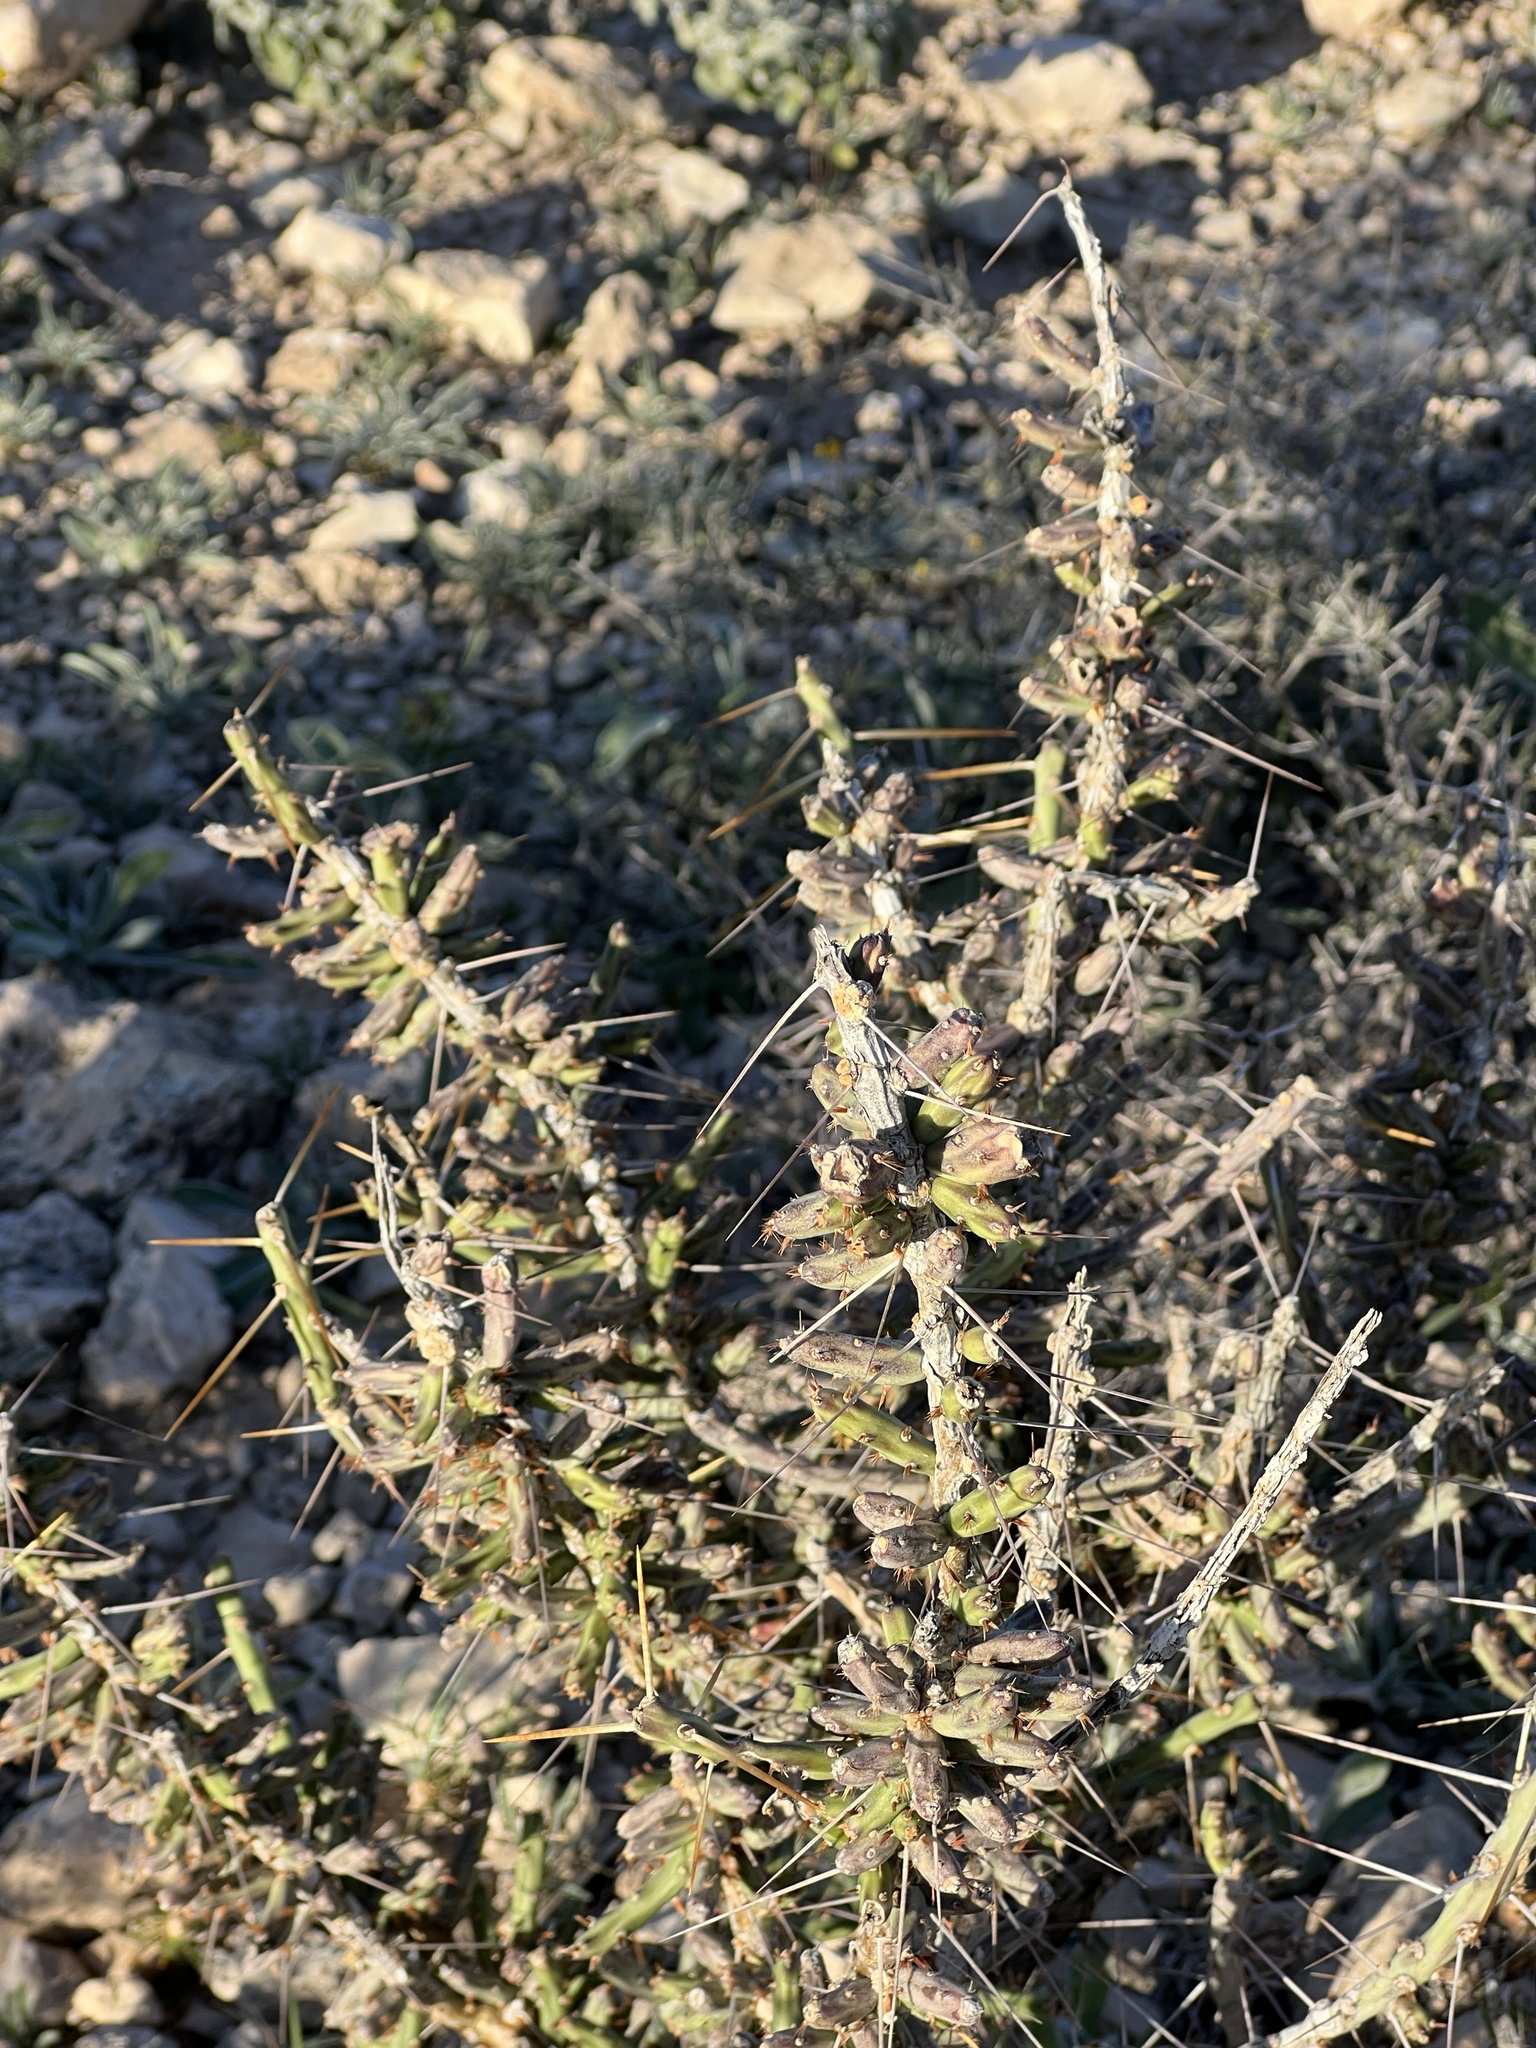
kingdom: Plantae
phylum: Tracheophyta
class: Magnoliopsida
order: Caryophyllales
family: Cactaceae
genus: Cylindropuntia
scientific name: Cylindropuntia leptocaulis
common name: Christmas cactus
